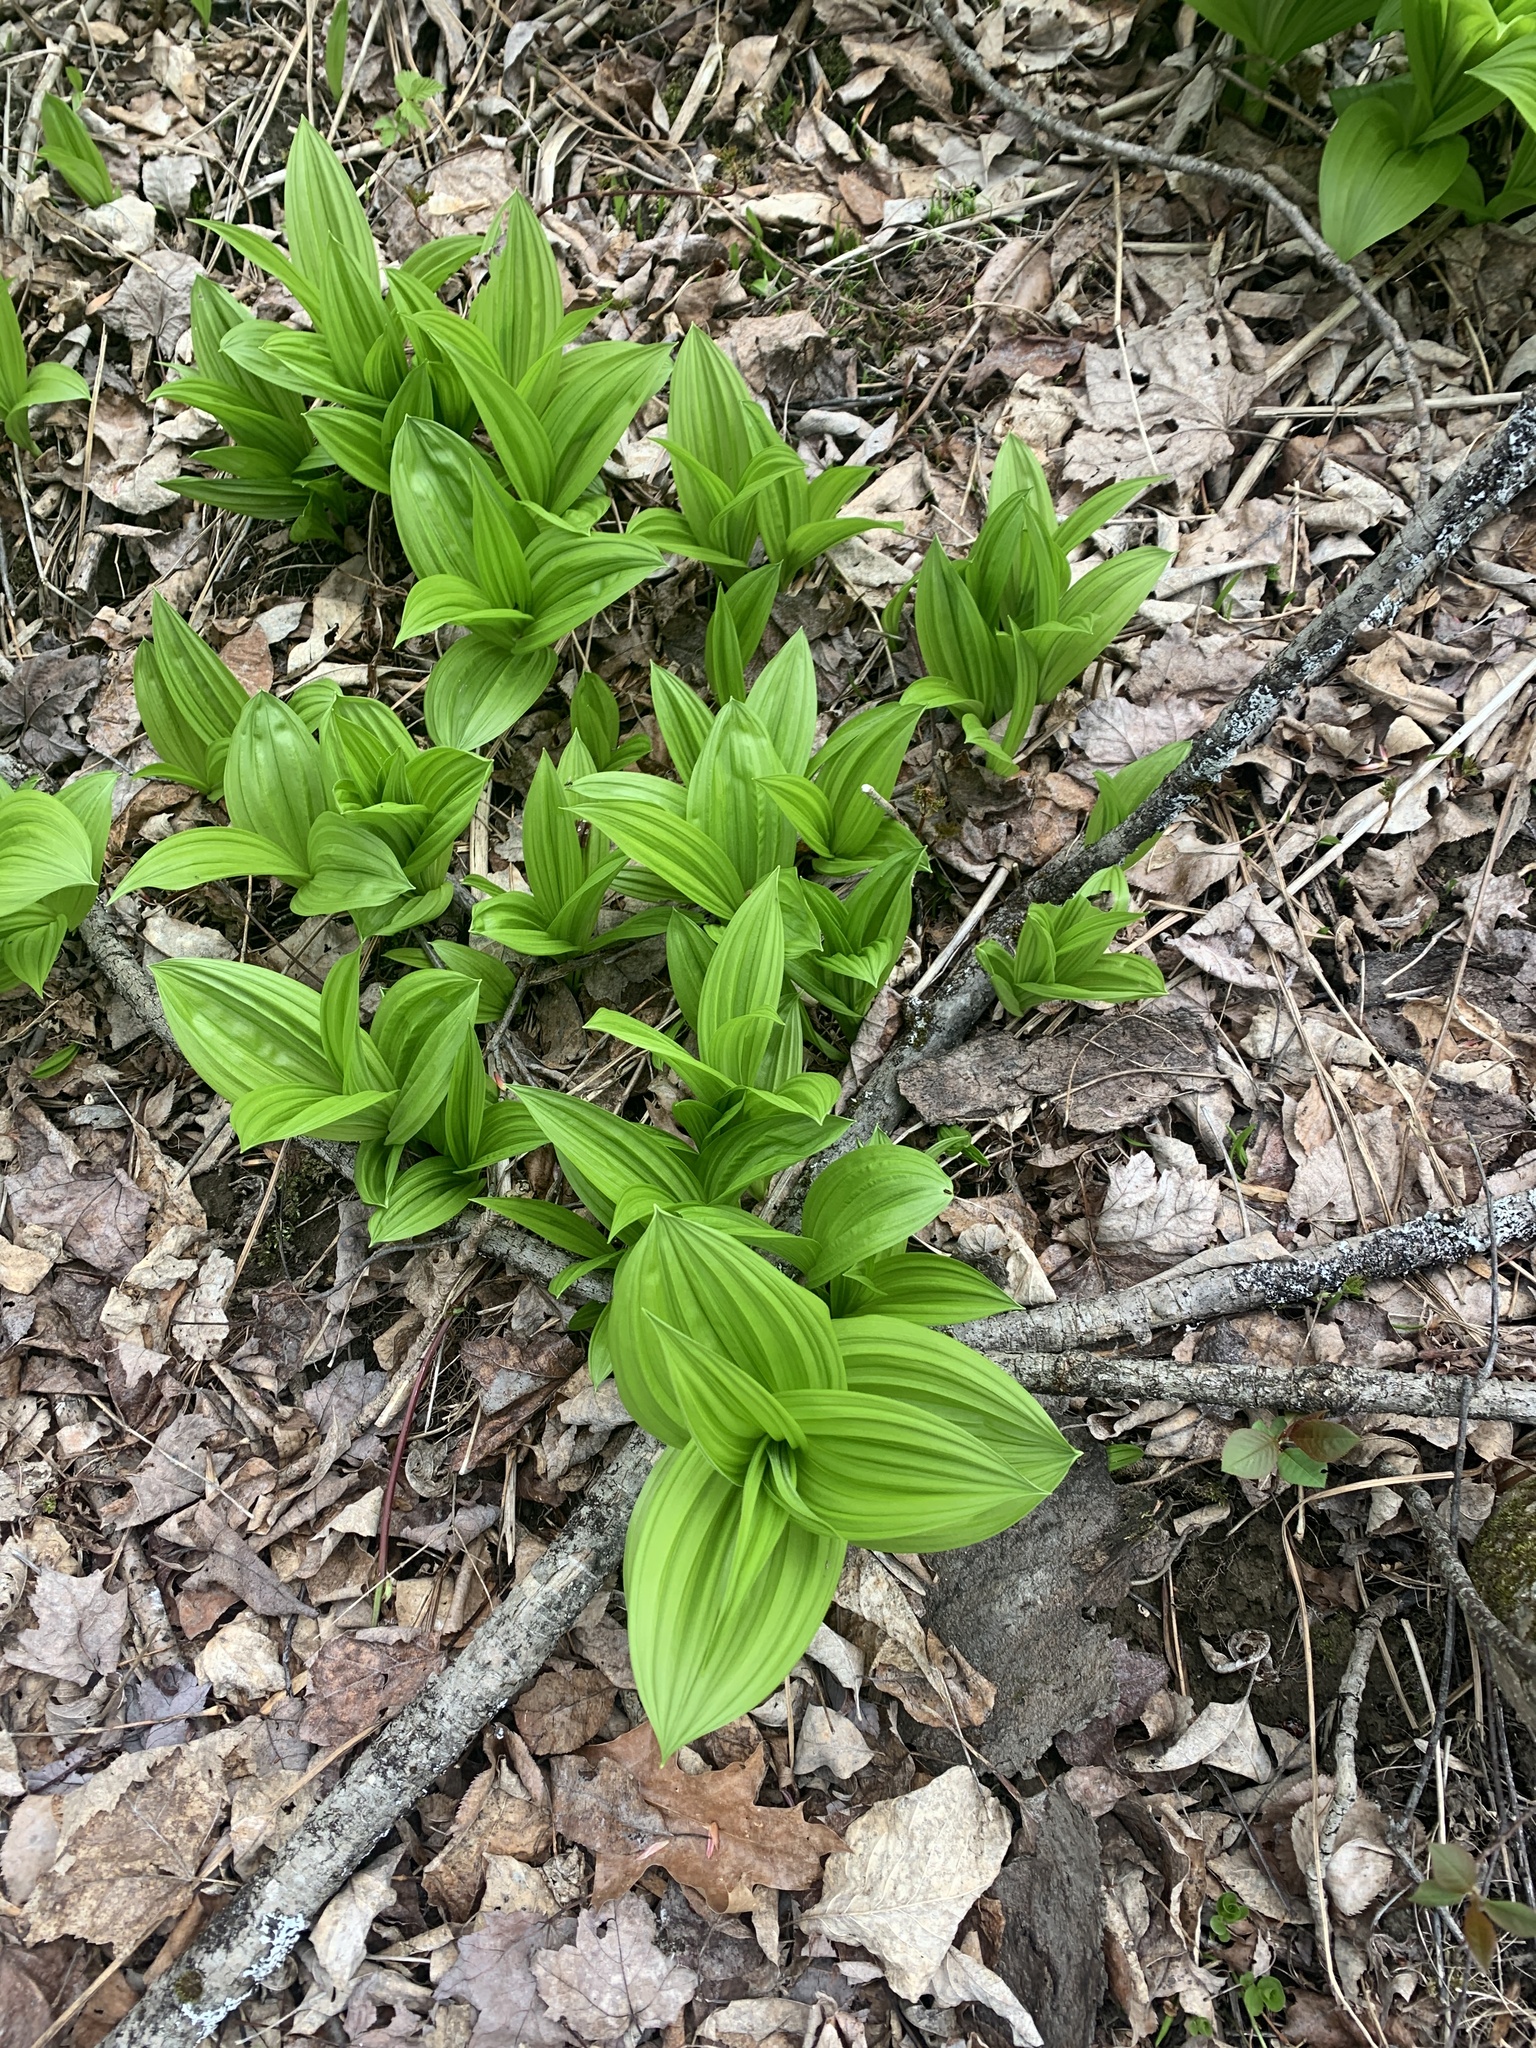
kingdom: Plantae
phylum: Tracheophyta
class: Liliopsida
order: Liliales
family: Melanthiaceae
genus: Veratrum
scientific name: Veratrum viride
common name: American false hellebore
